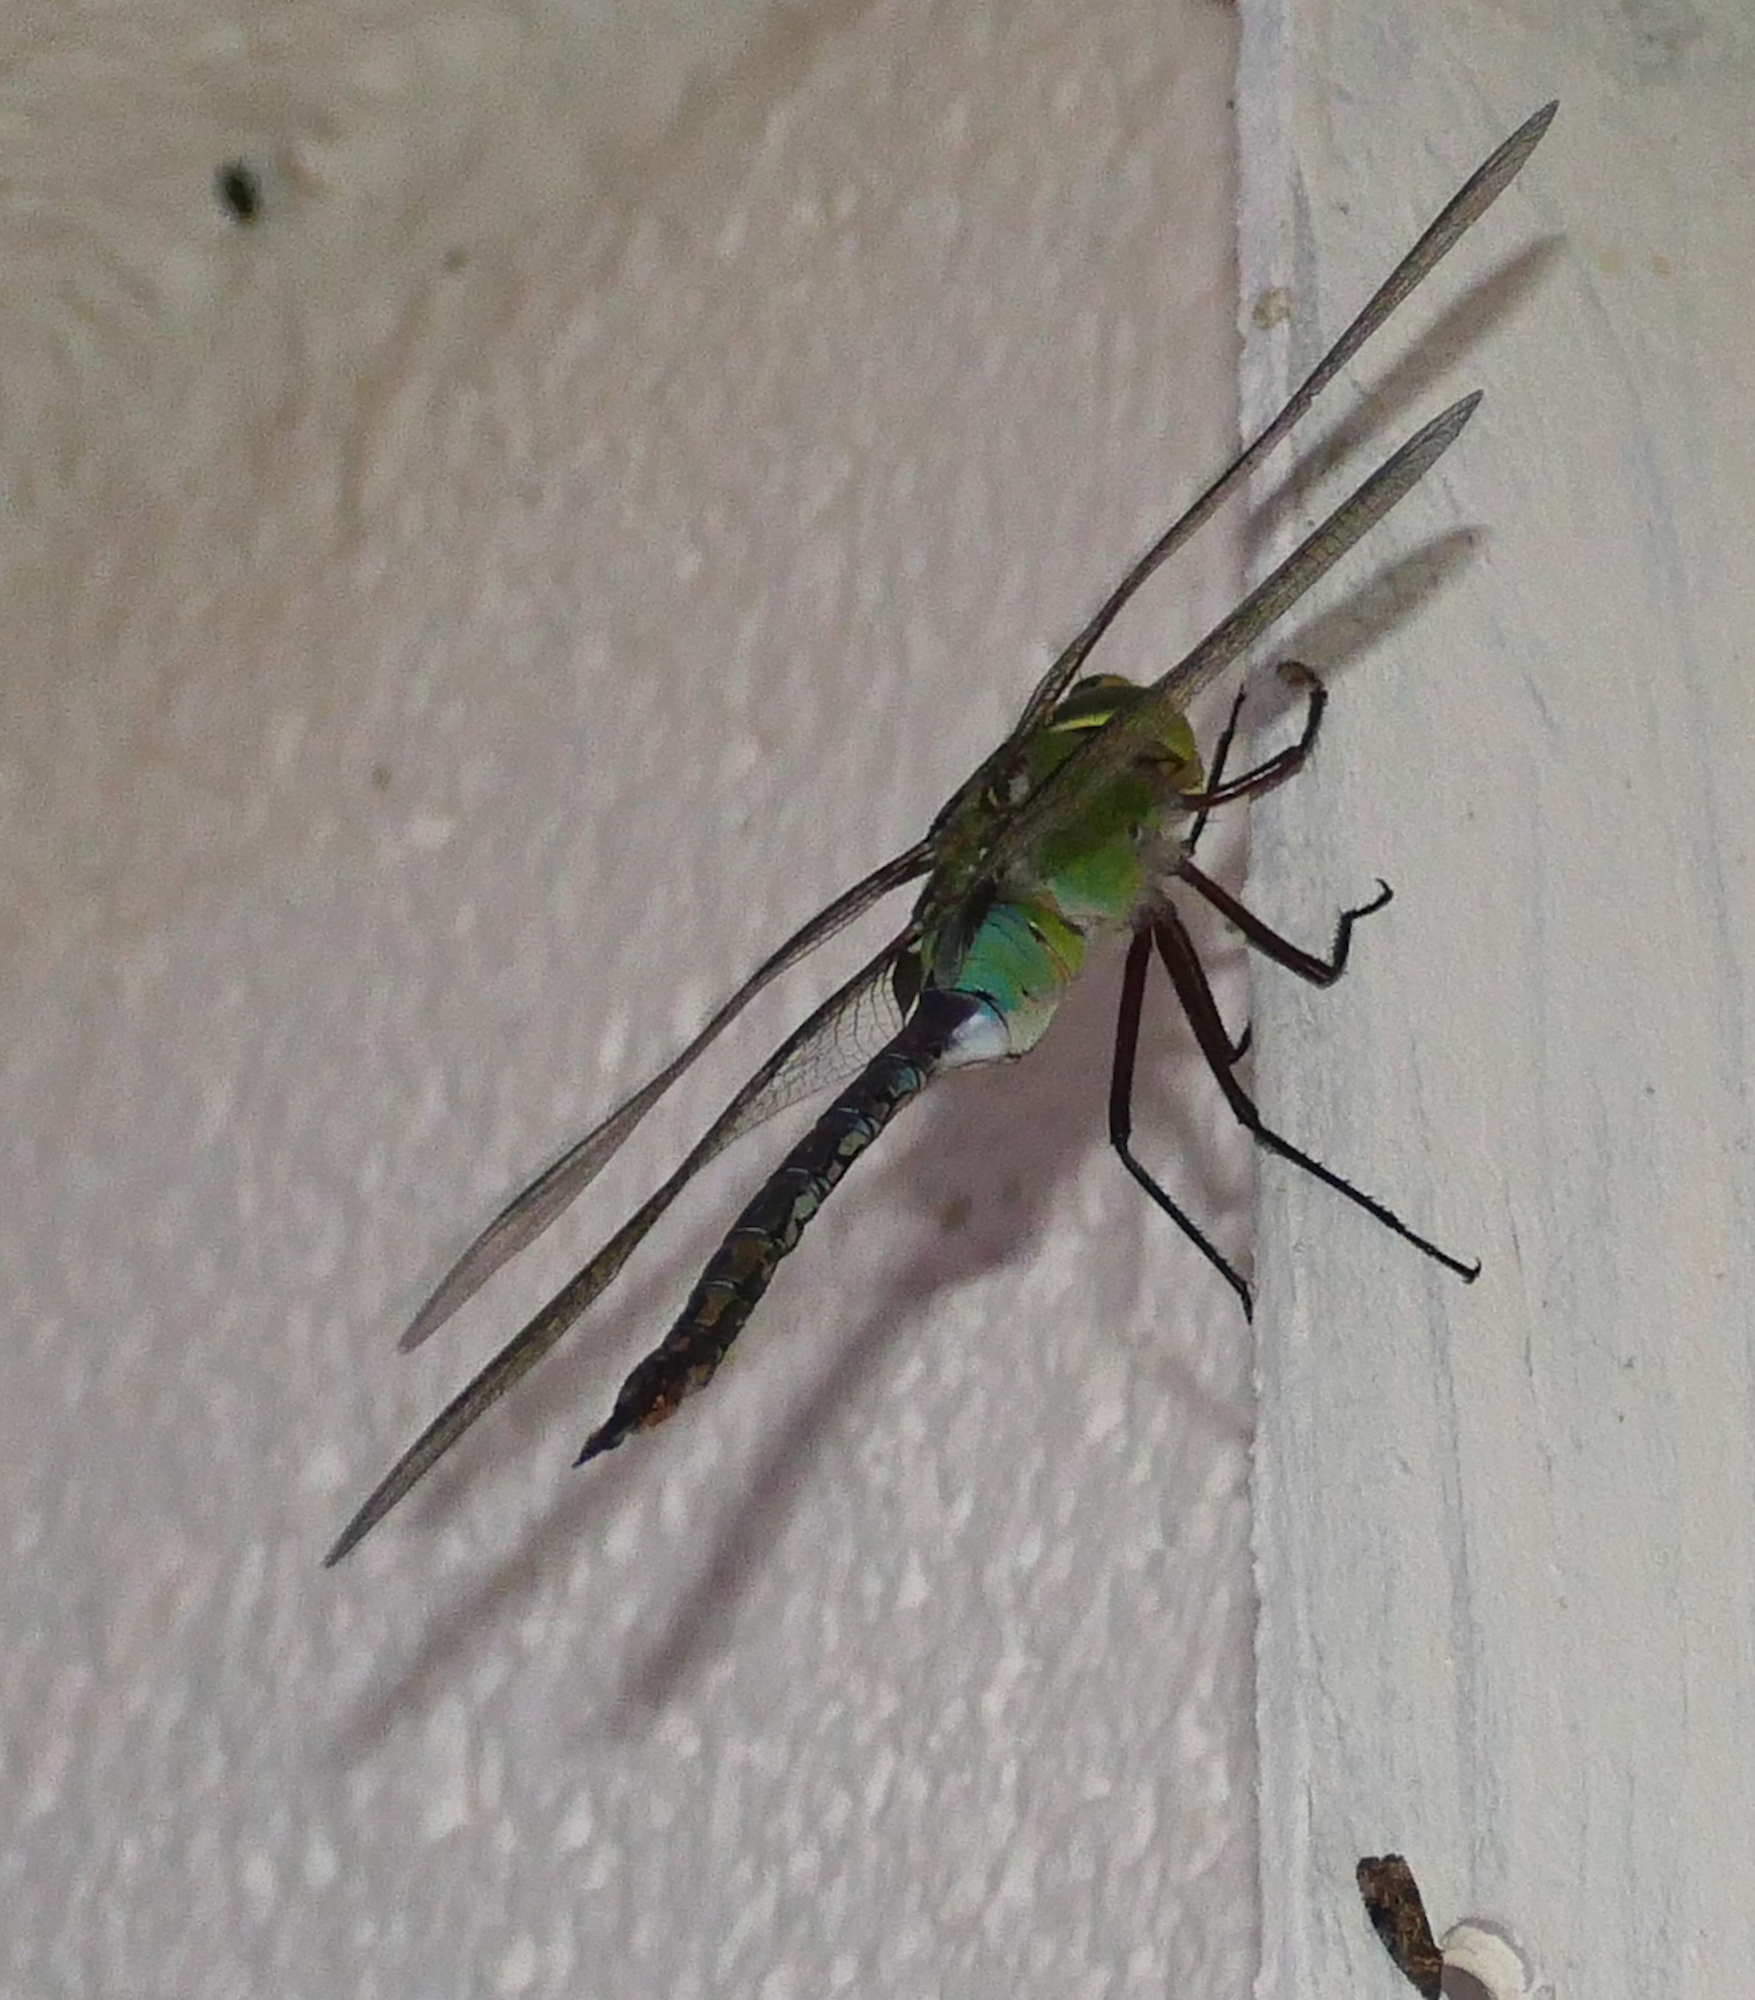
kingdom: Animalia
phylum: Arthropoda
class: Insecta
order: Odonata
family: Aeshnidae
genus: Anax
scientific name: Anax junius
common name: Common green darner
